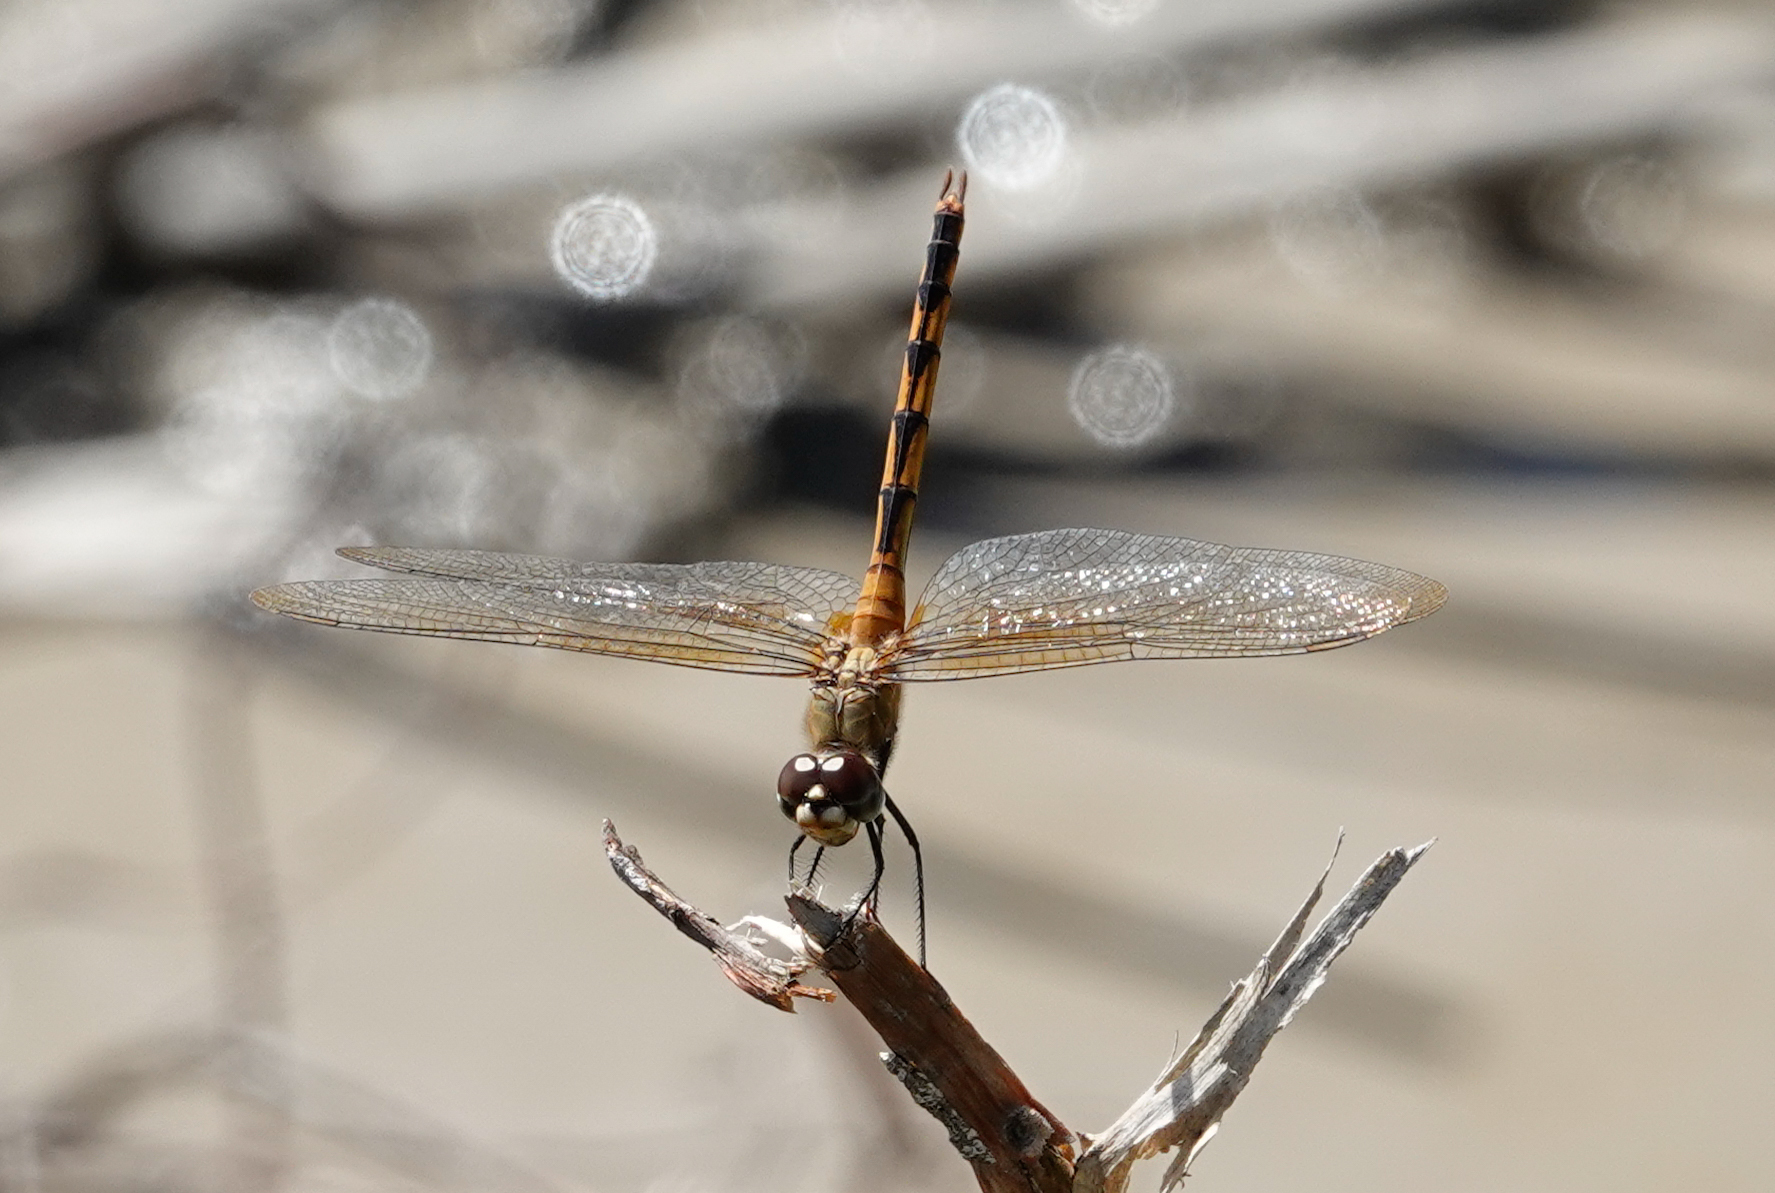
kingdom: Animalia
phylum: Arthropoda
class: Insecta
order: Odonata
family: Libellulidae
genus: Brachymesia
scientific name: Brachymesia herbida
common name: Tawny pennant
